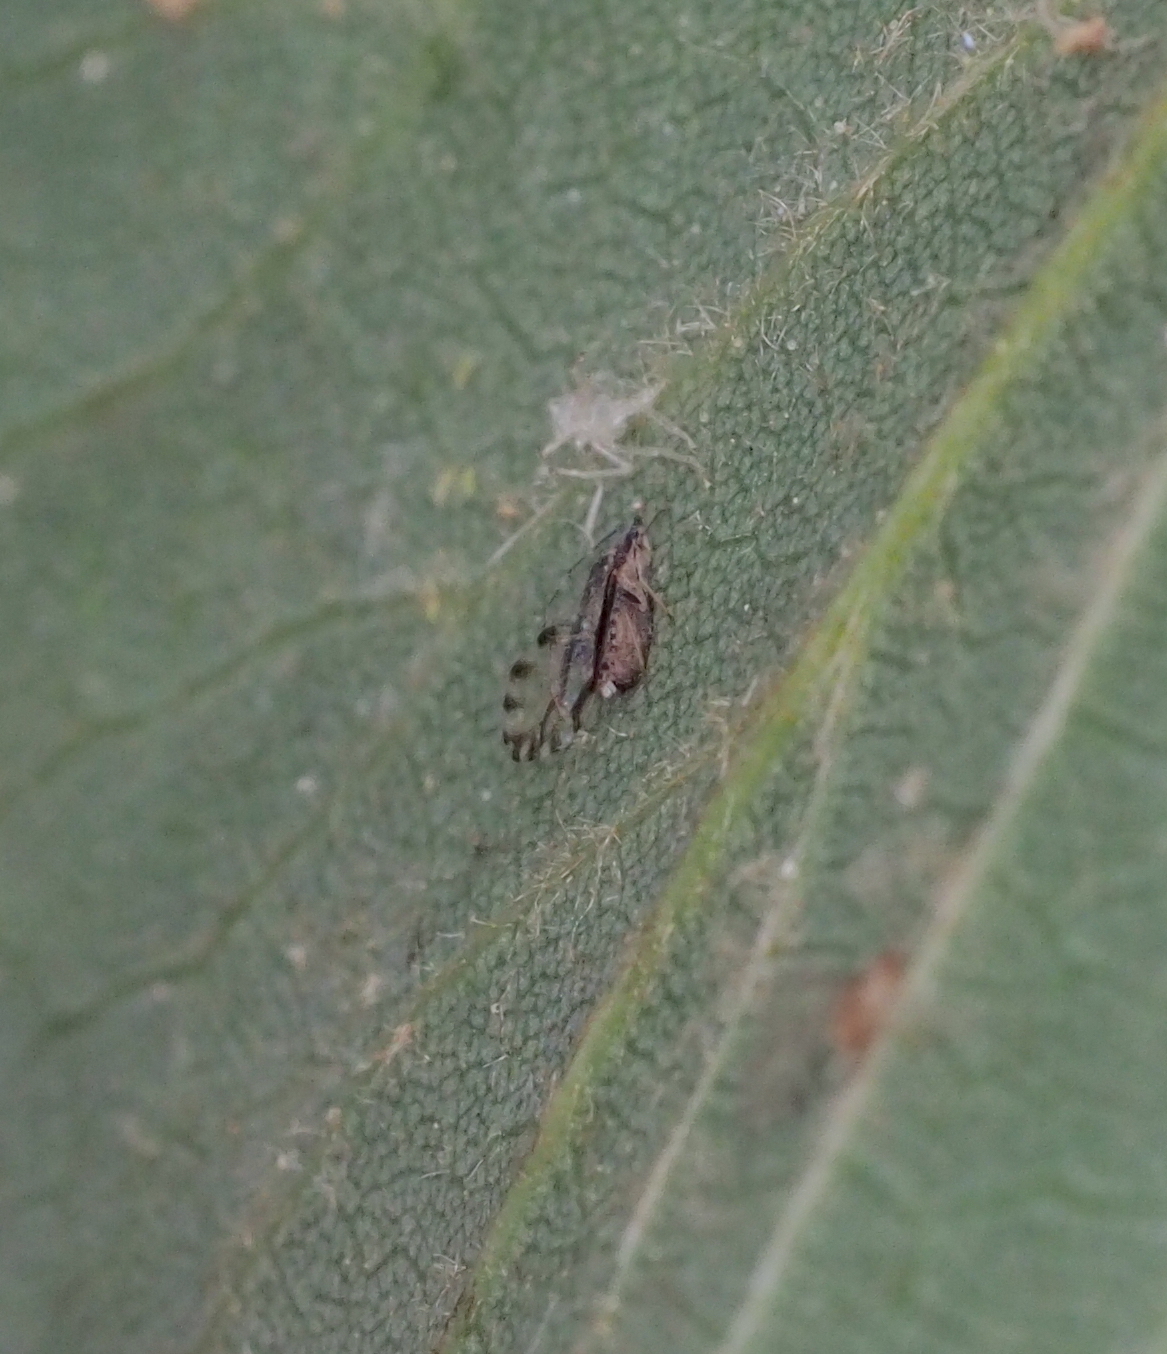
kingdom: Animalia
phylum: Arthropoda
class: Insecta
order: Hemiptera
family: Aphididae
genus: Eucallipterus
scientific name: Eucallipterus tiliae
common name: Aphid
